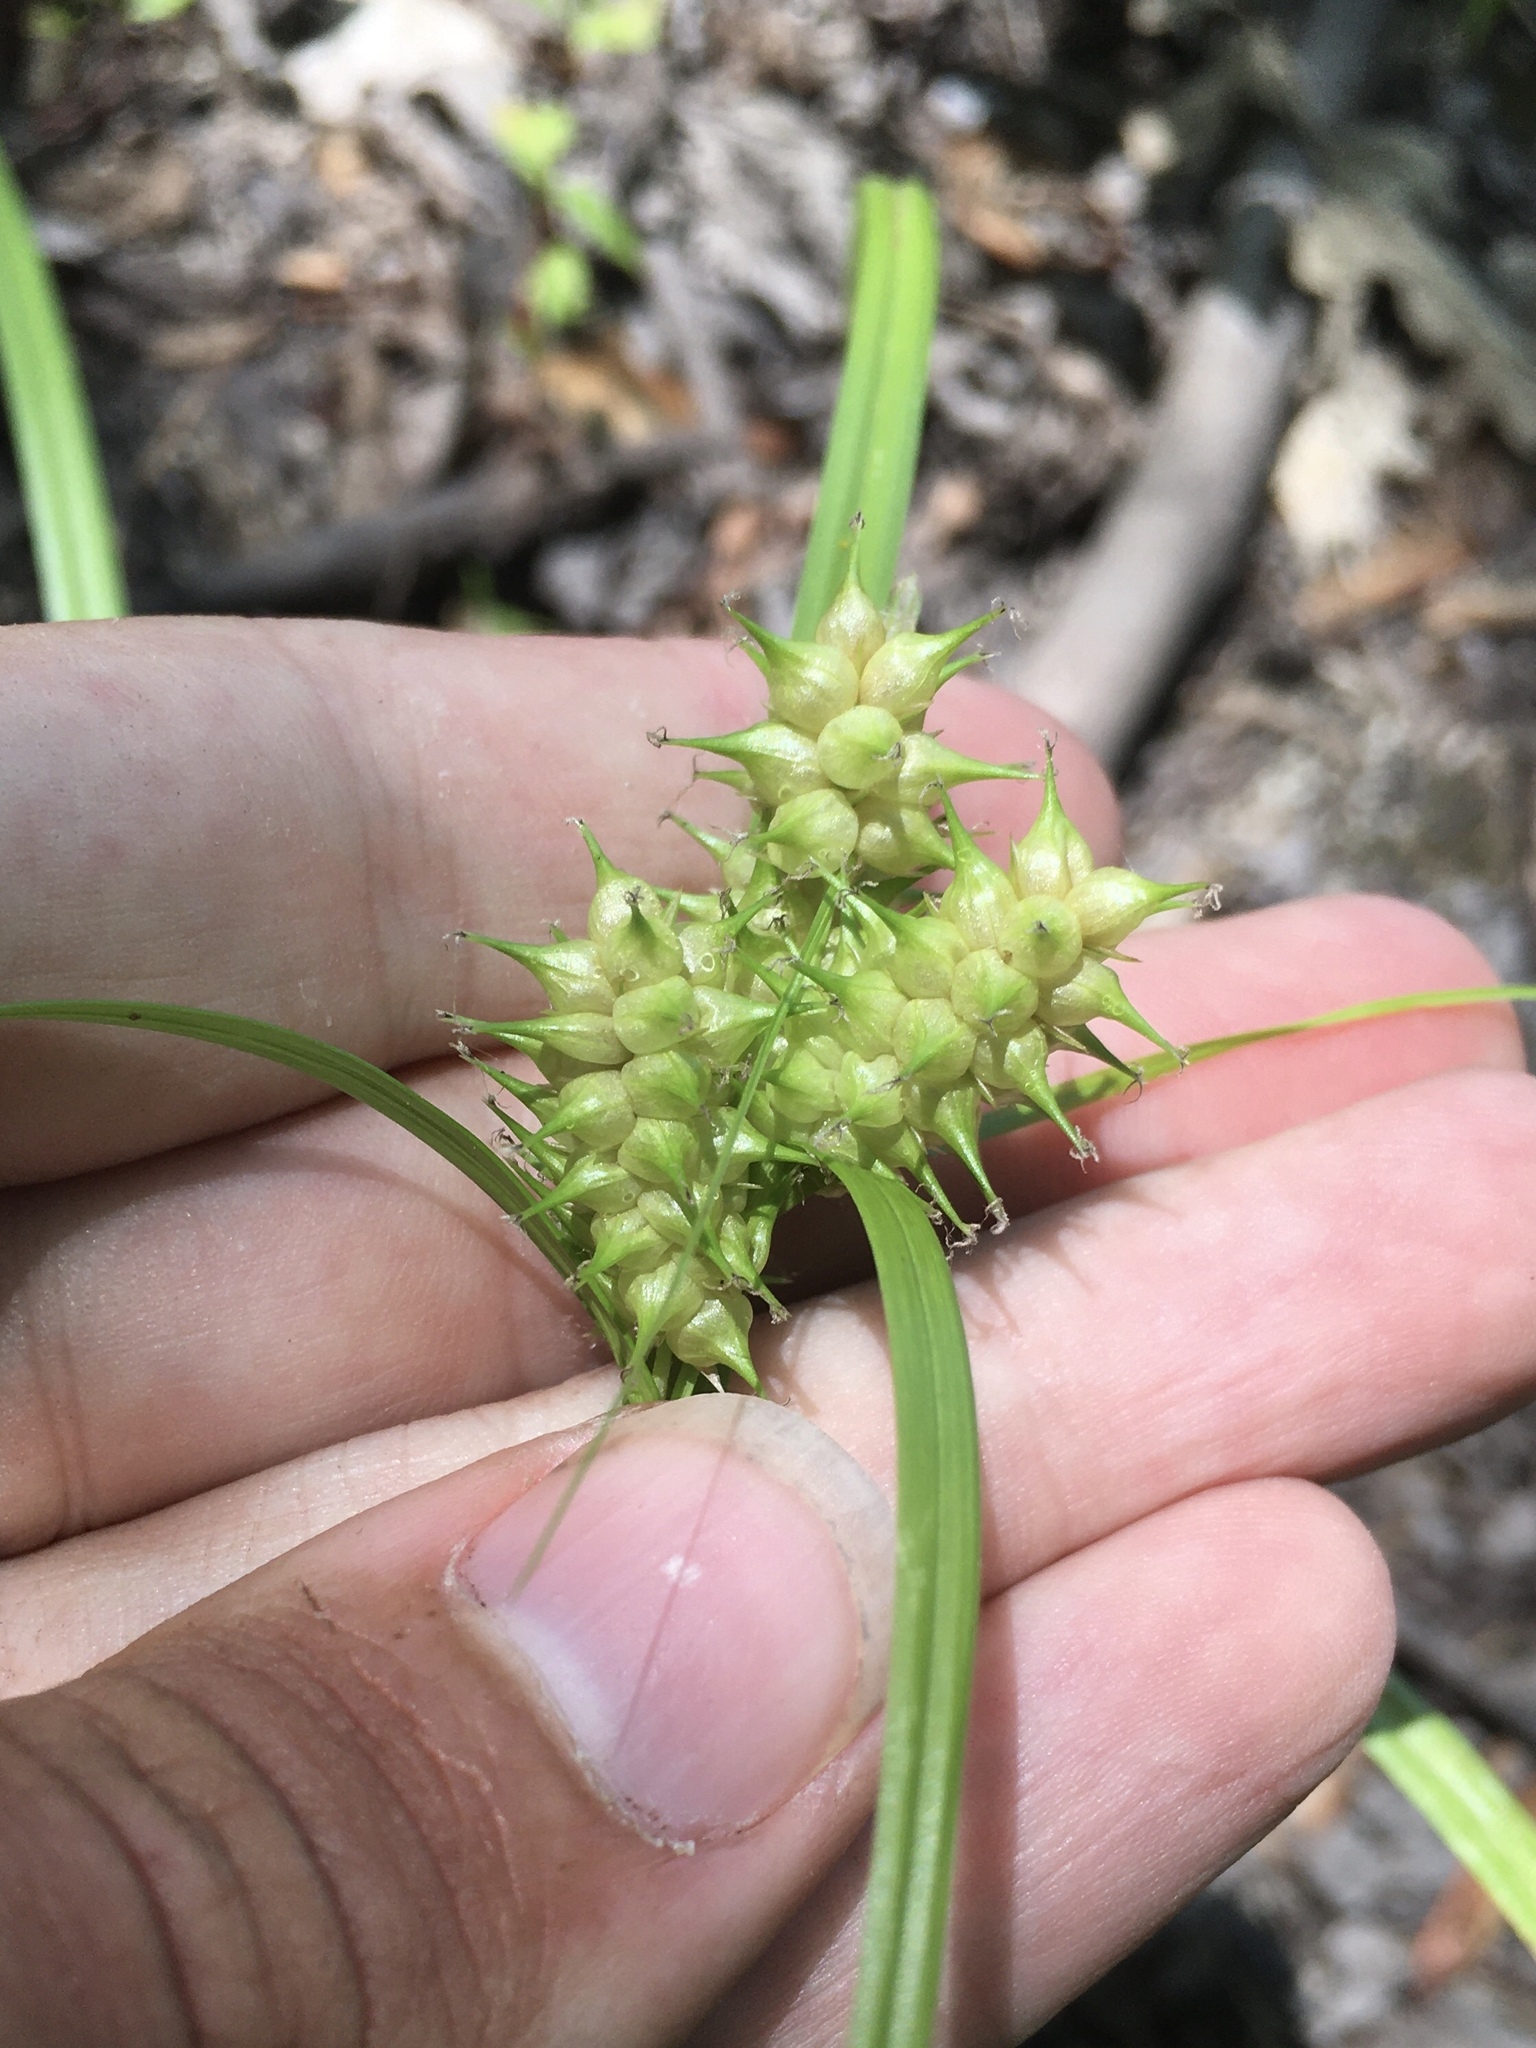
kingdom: Plantae
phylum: Tracheophyta
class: Liliopsida
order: Poales
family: Cyperaceae
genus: Carex
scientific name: Carex retrorsa
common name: Knot-sheath sedge
